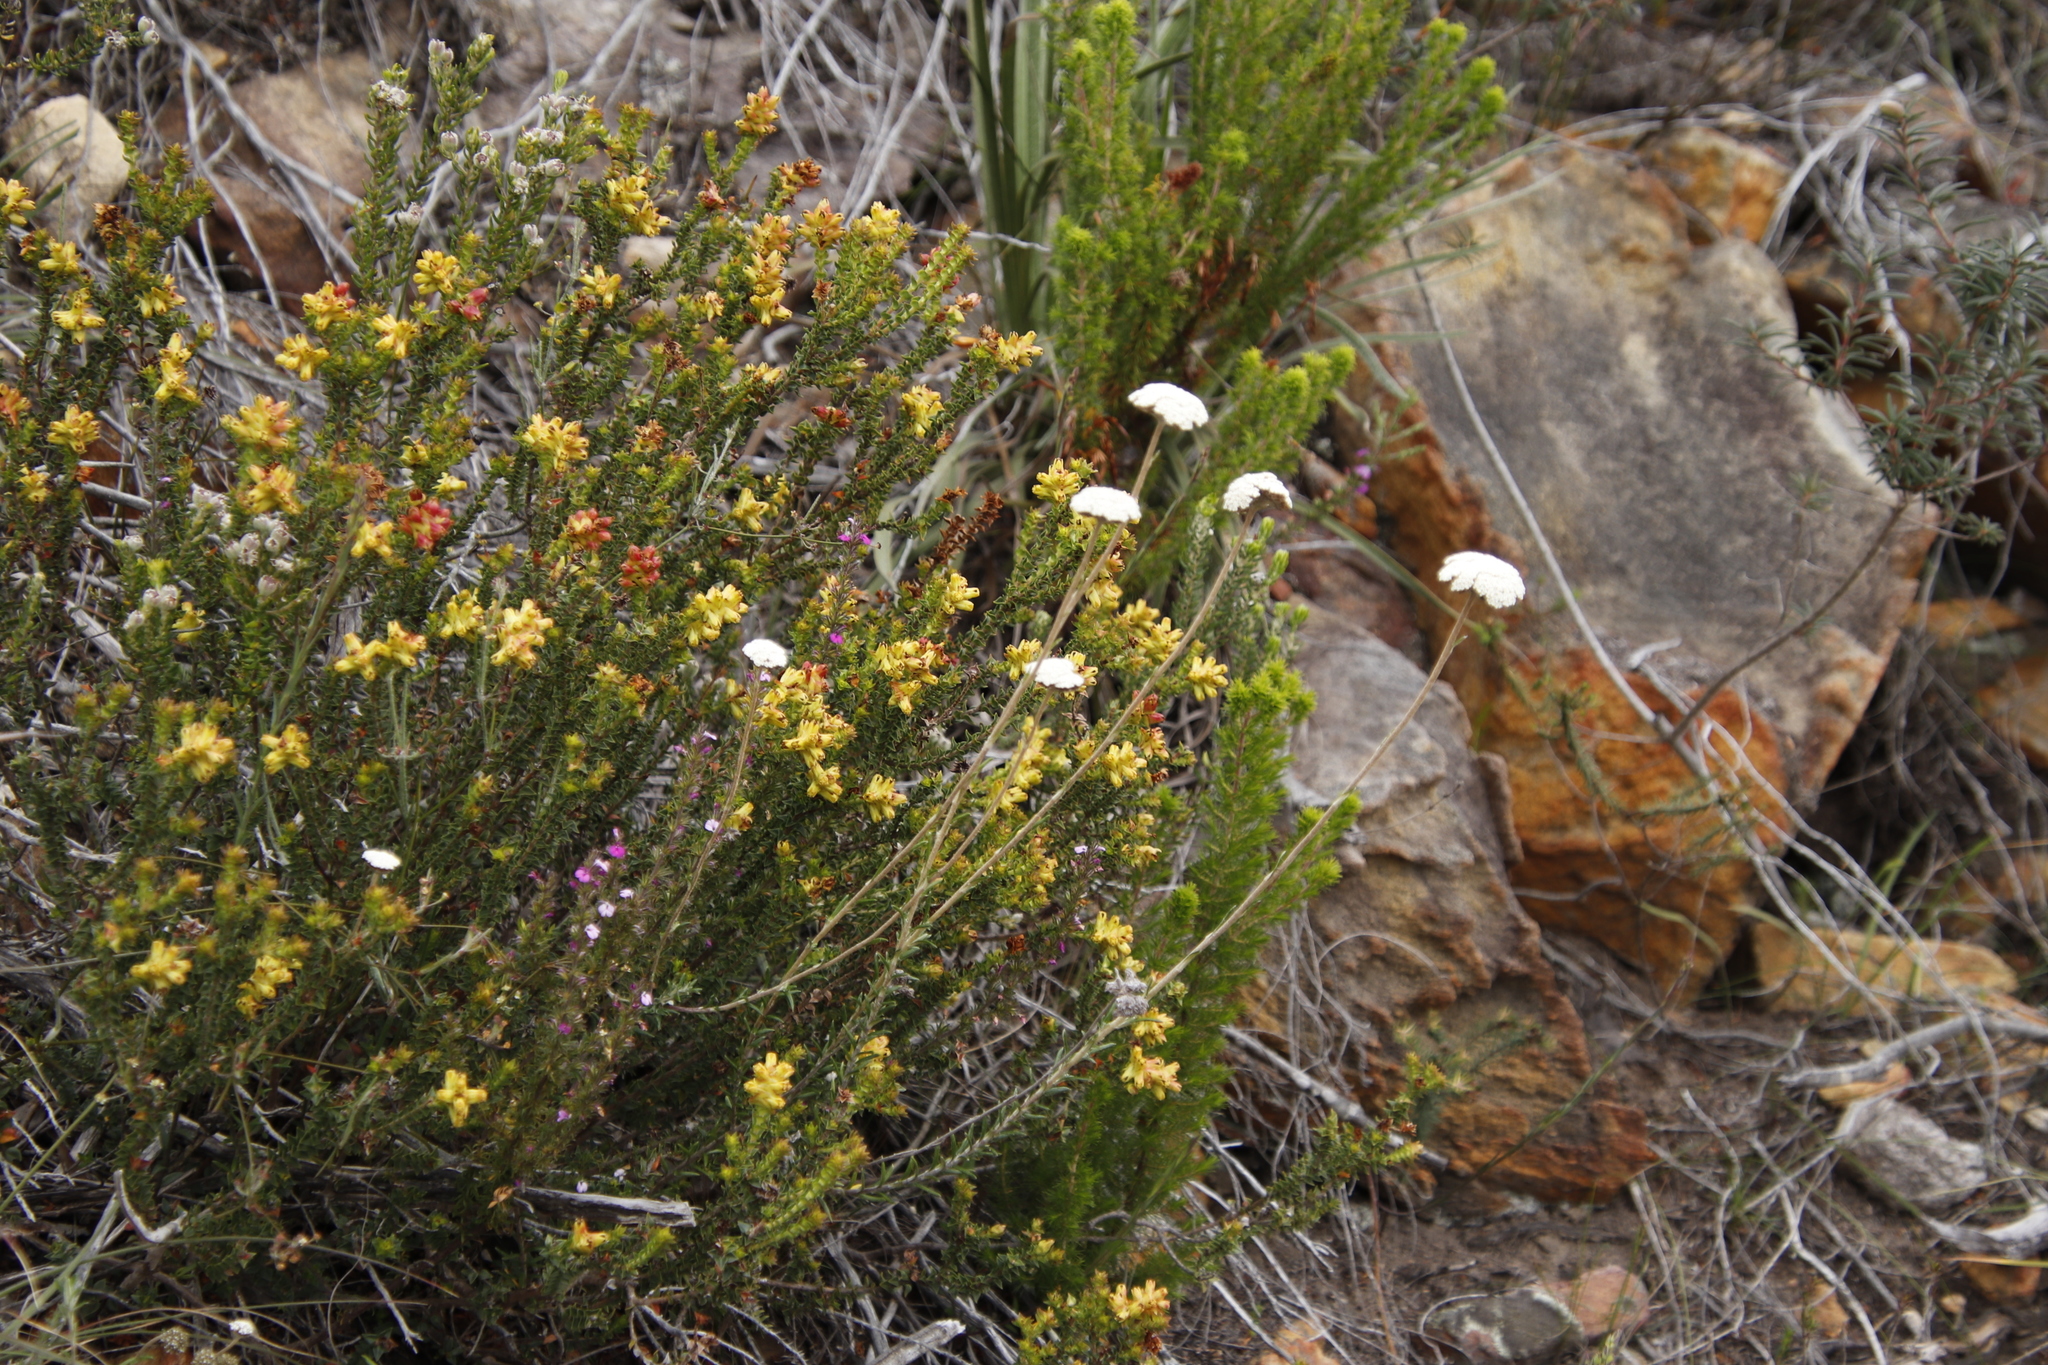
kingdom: Plantae
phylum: Tracheophyta
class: Magnoliopsida
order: Myrtales
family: Penaeaceae
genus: Penaea
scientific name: Penaea mucronata
